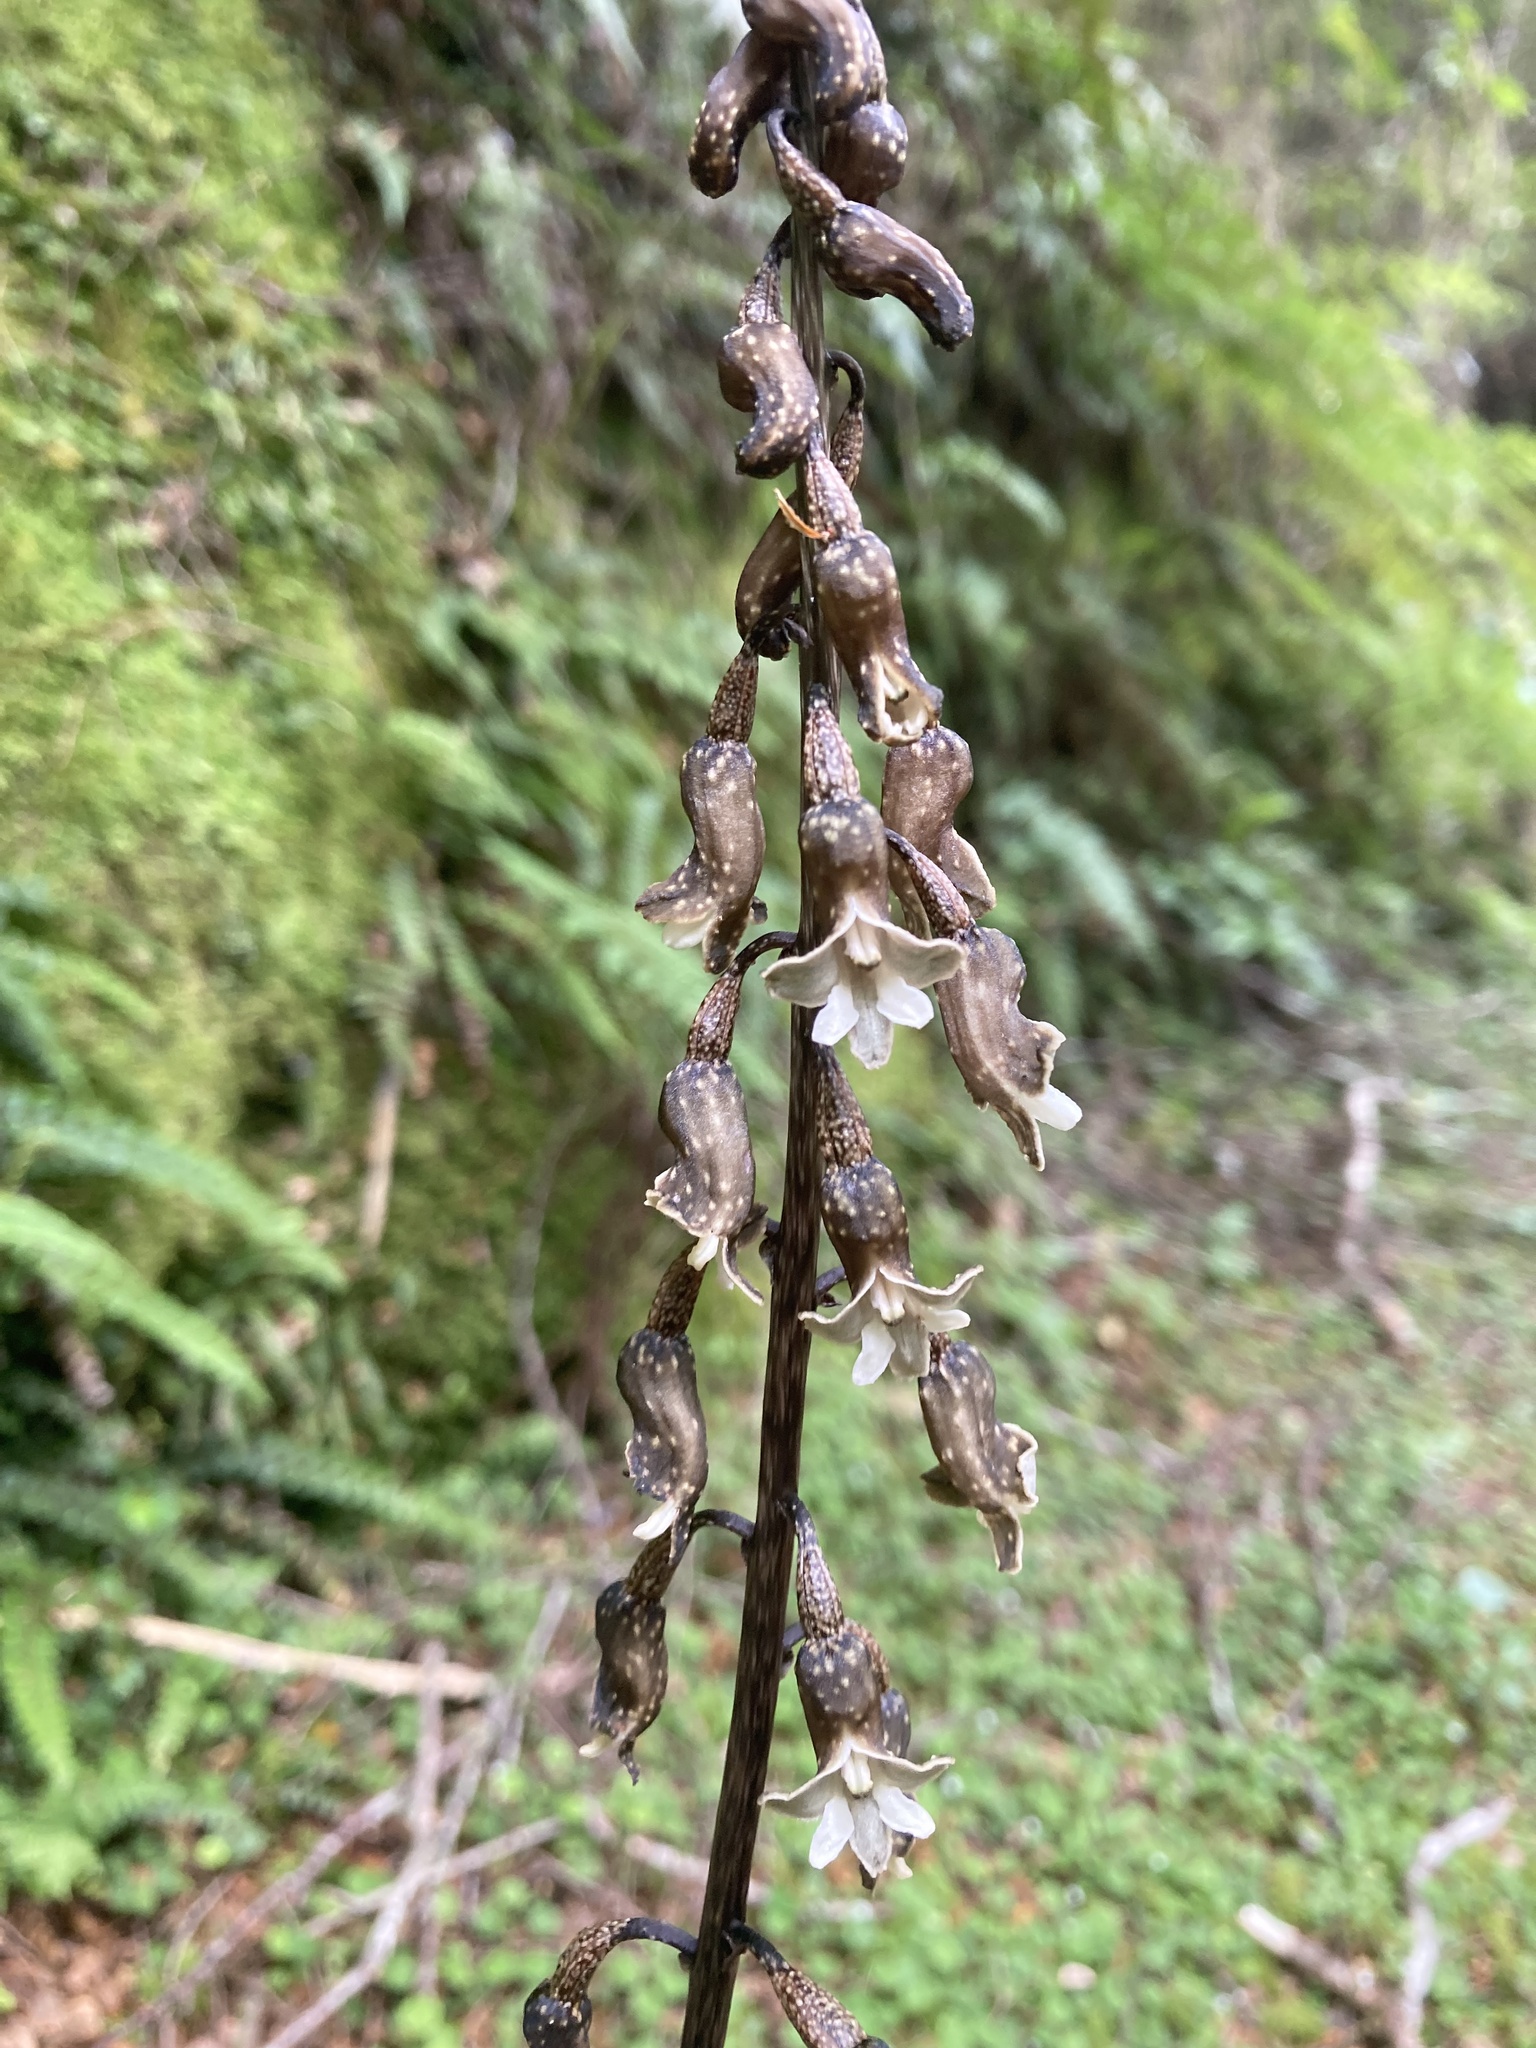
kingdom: Plantae
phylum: Tracheophyta
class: Liliopsida
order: Asparagales
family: Orchidaceae
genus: Gastrodia
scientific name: Gastrodia cunninghamii
